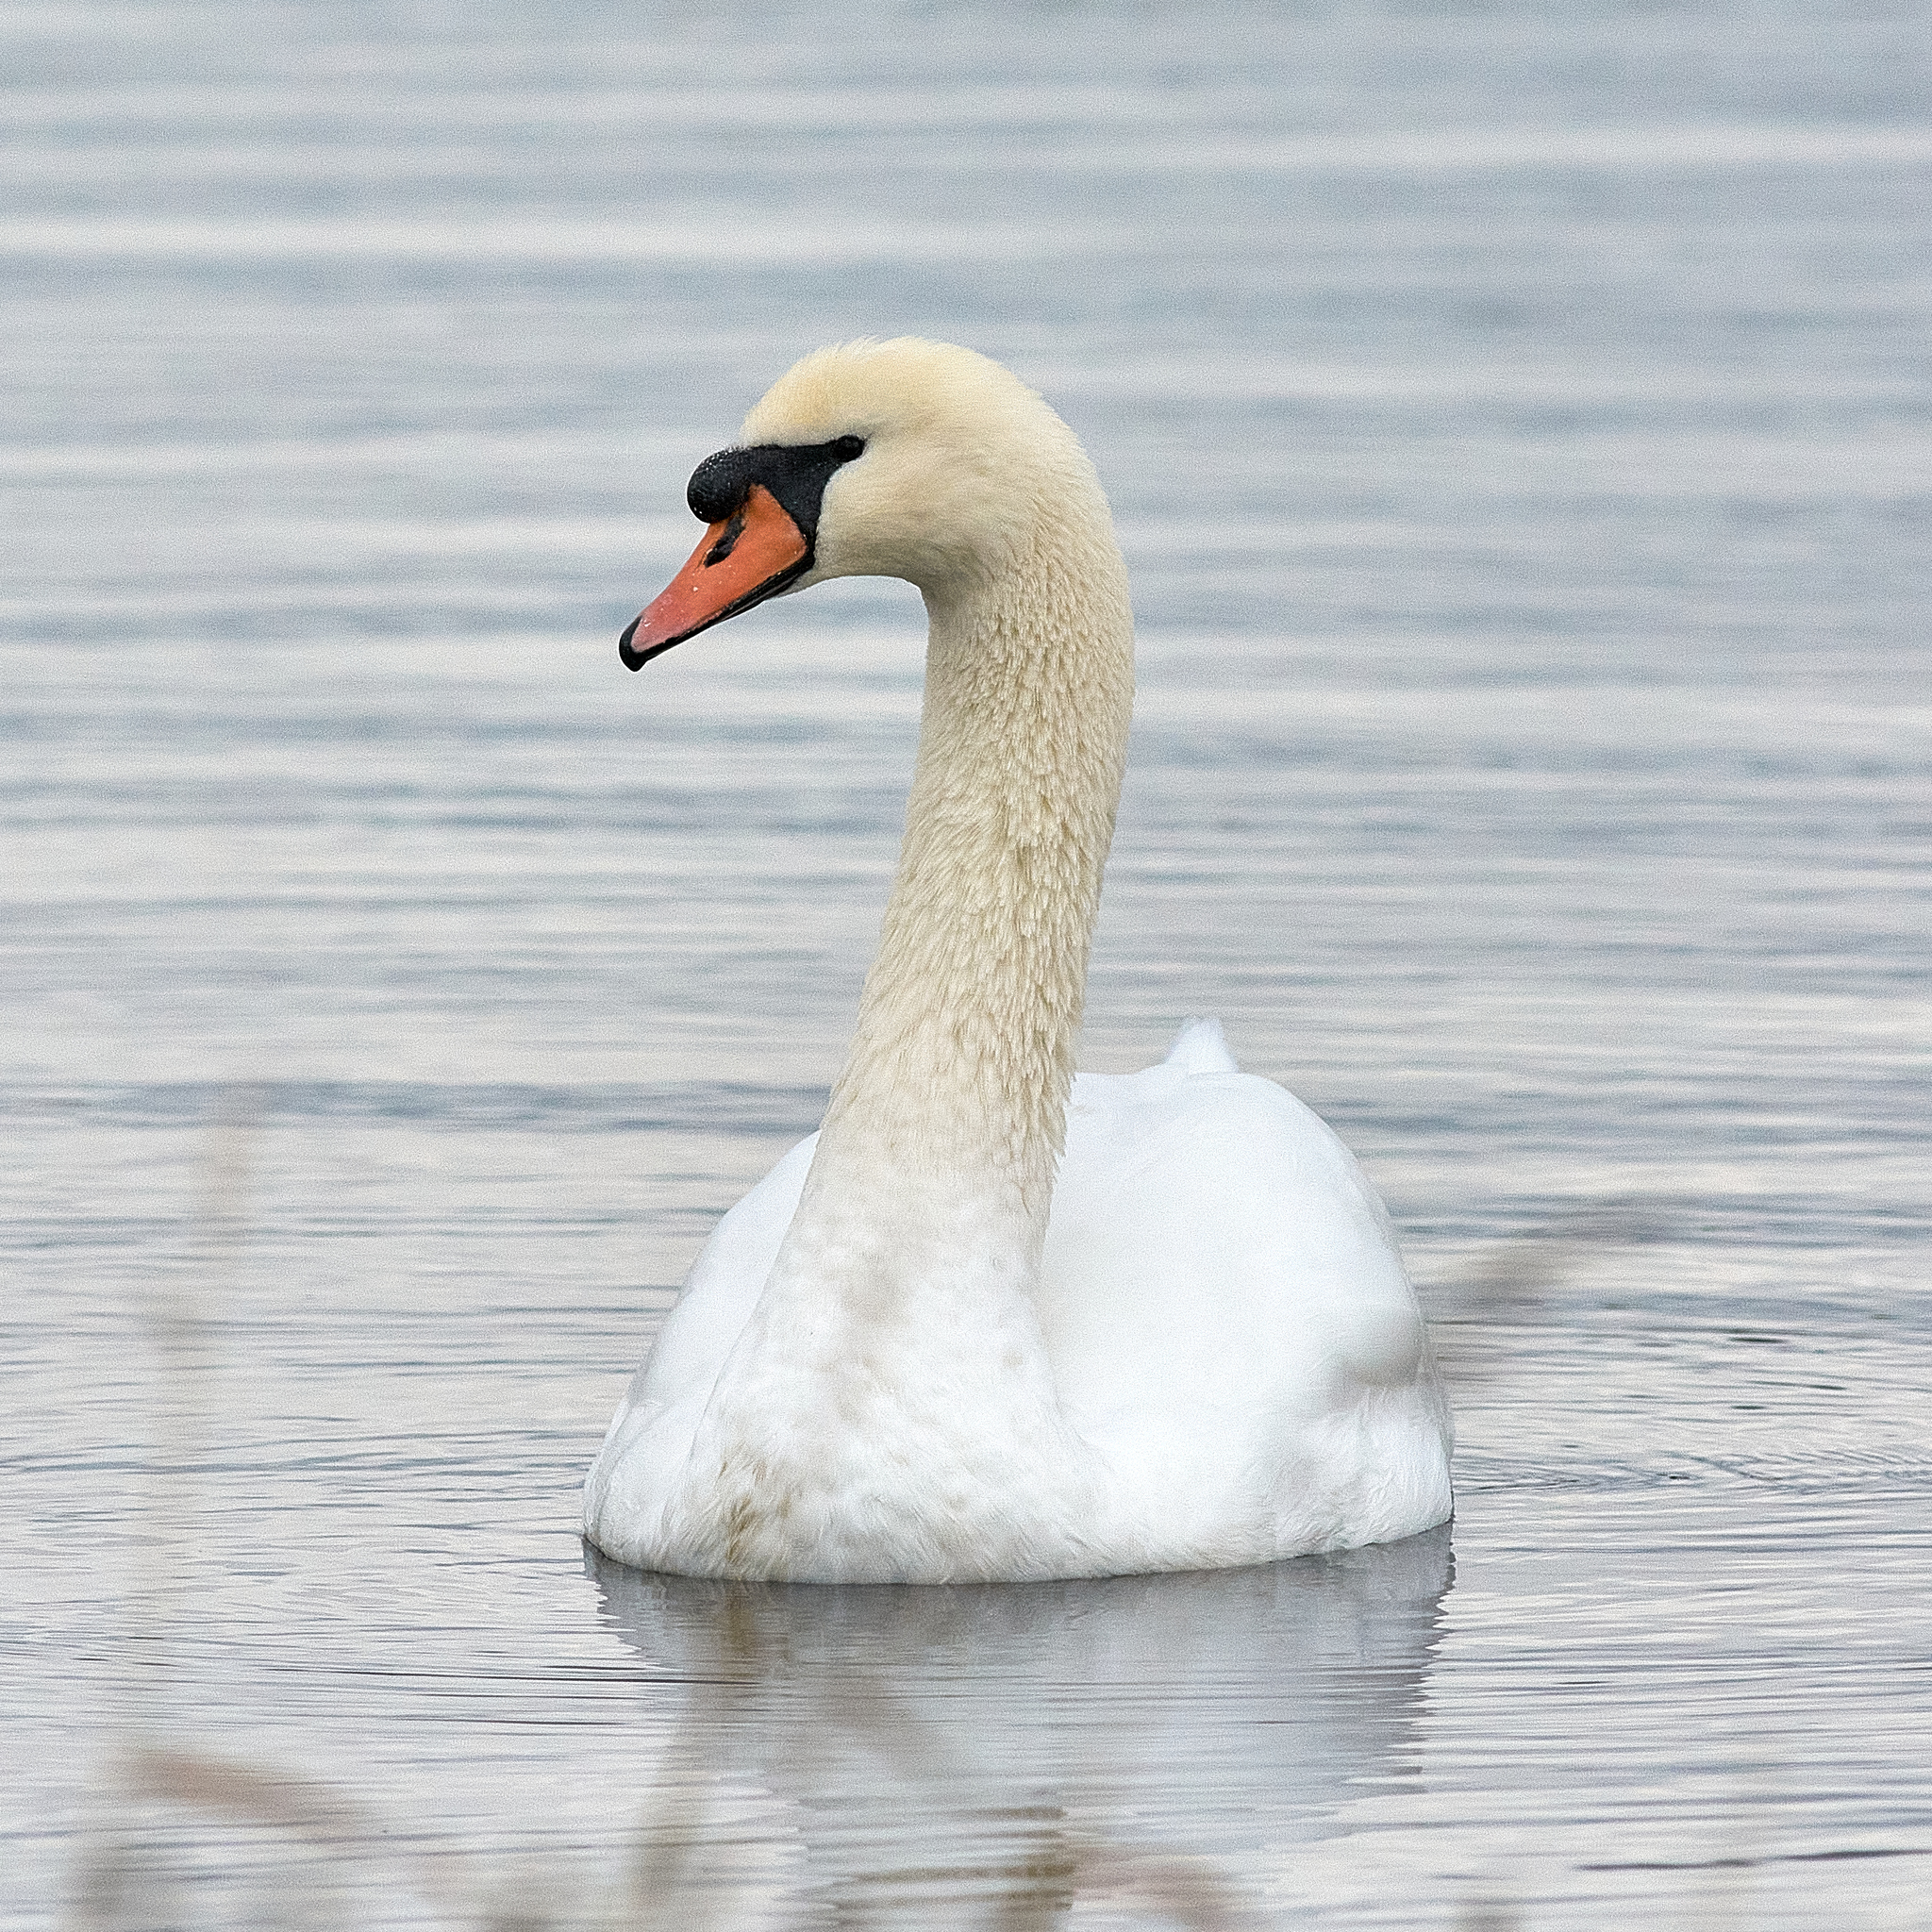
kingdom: Animalia
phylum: Chordata
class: Aves
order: Anseriformes
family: Anatidae
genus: Cygnus
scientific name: Cygnus olor
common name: Mute swan
